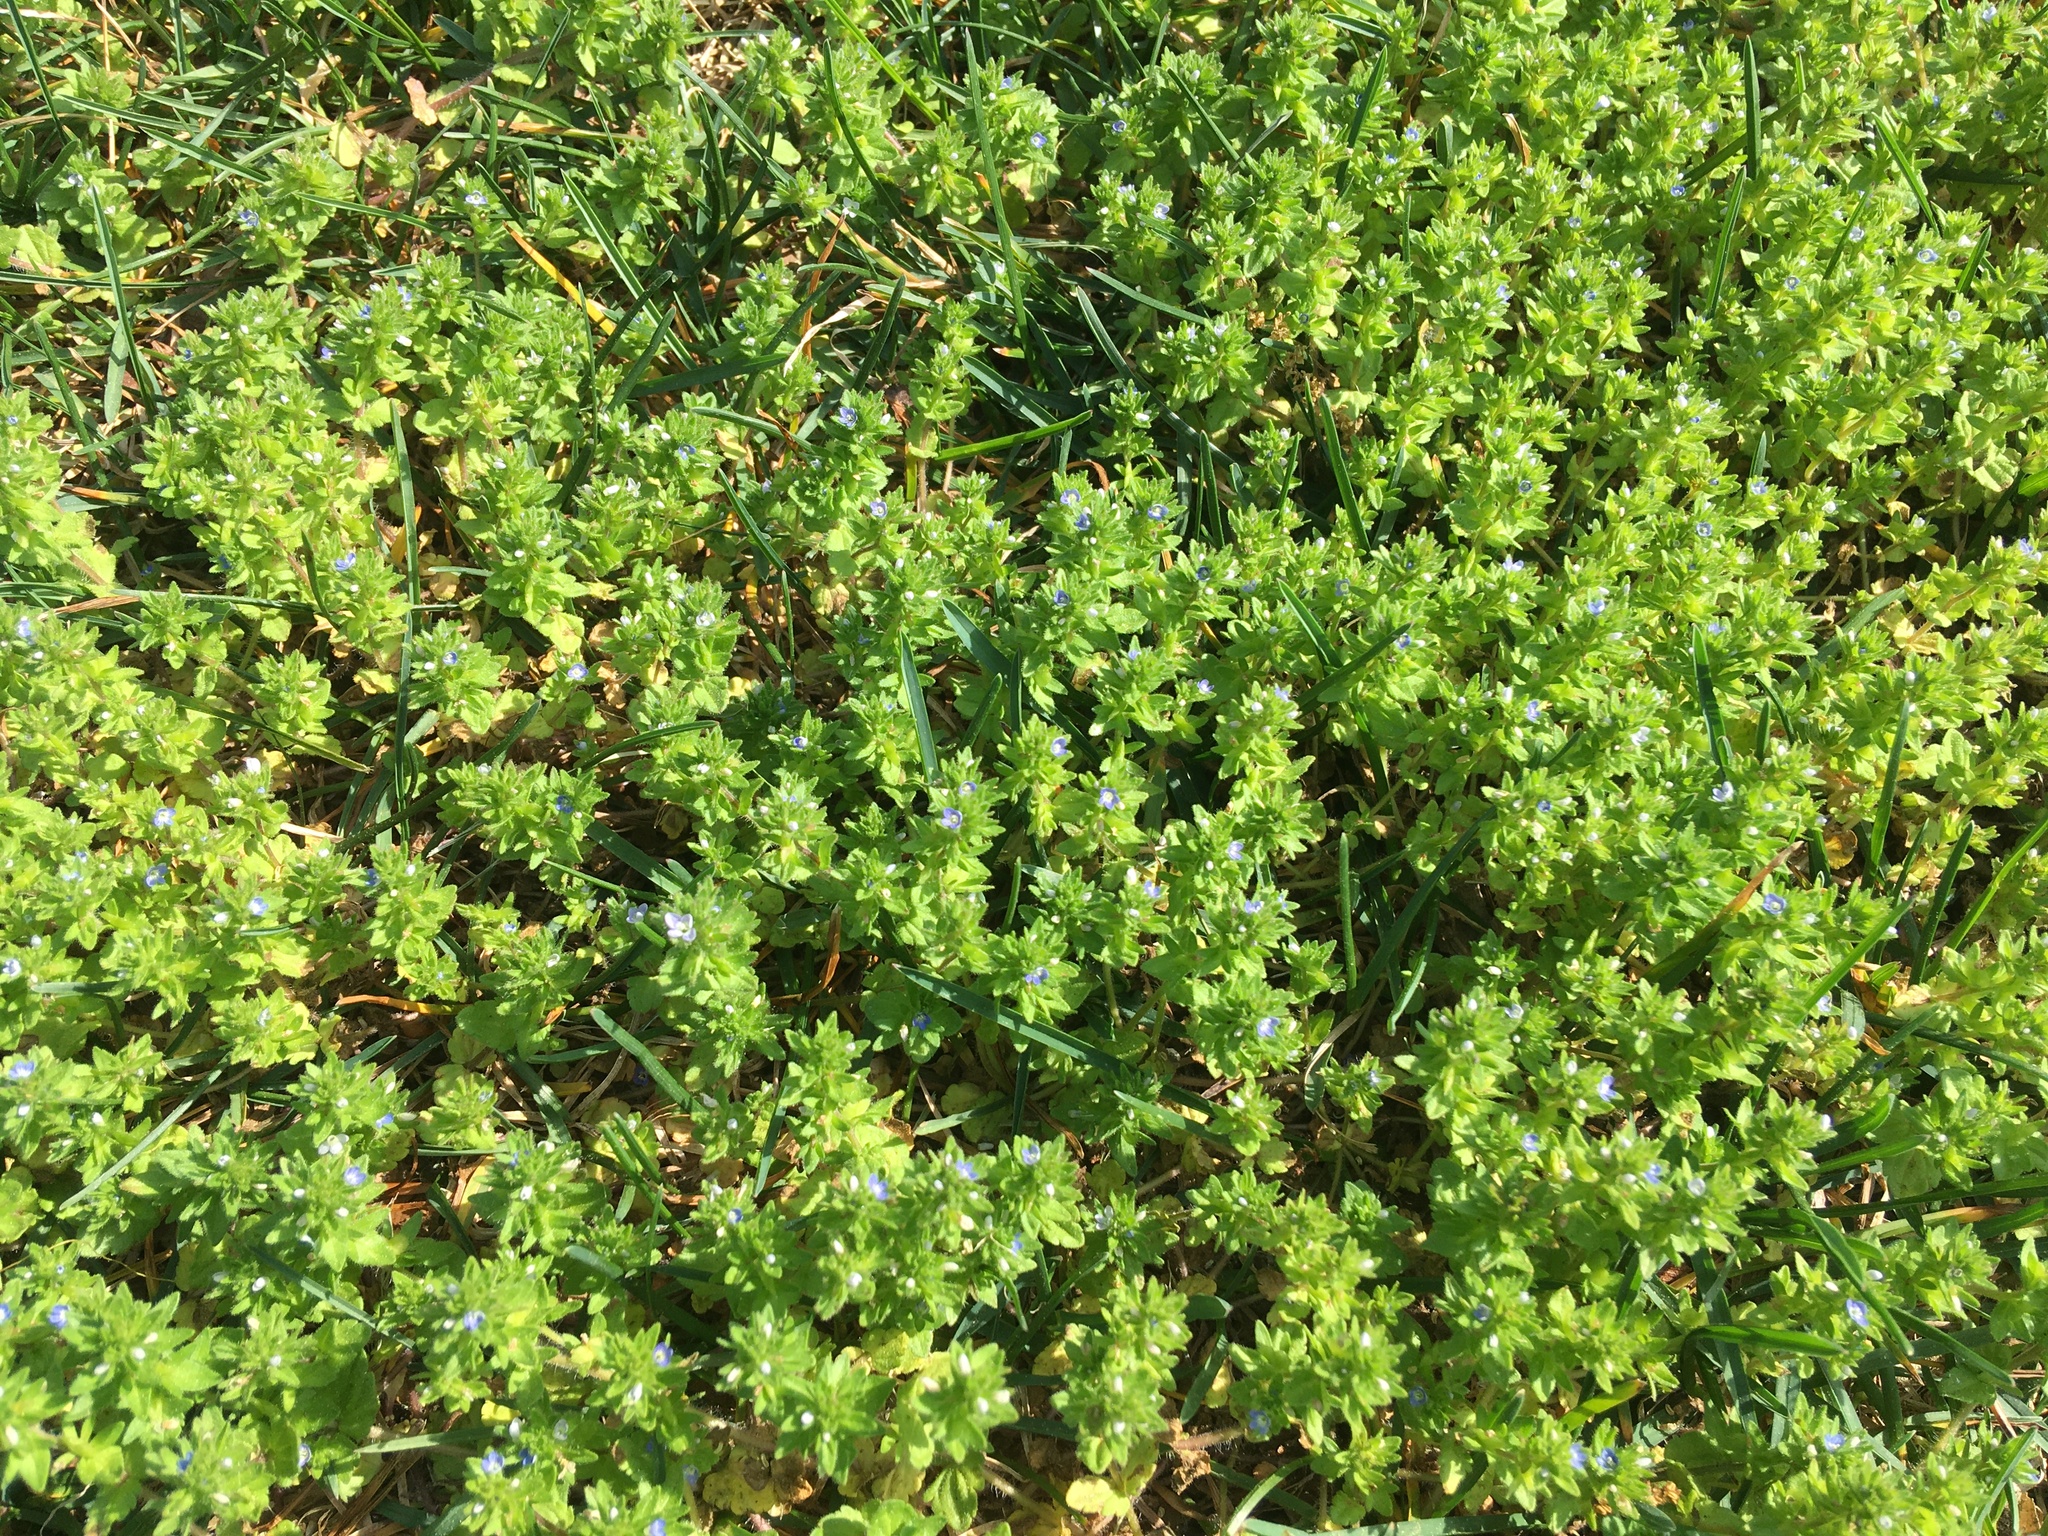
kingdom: Plantae
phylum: Tracheophyta
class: Magnoliopsida
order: Lamiales
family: Plantaginaceae
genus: Veronica
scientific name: Veronica arvensis
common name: Corn speedwell
